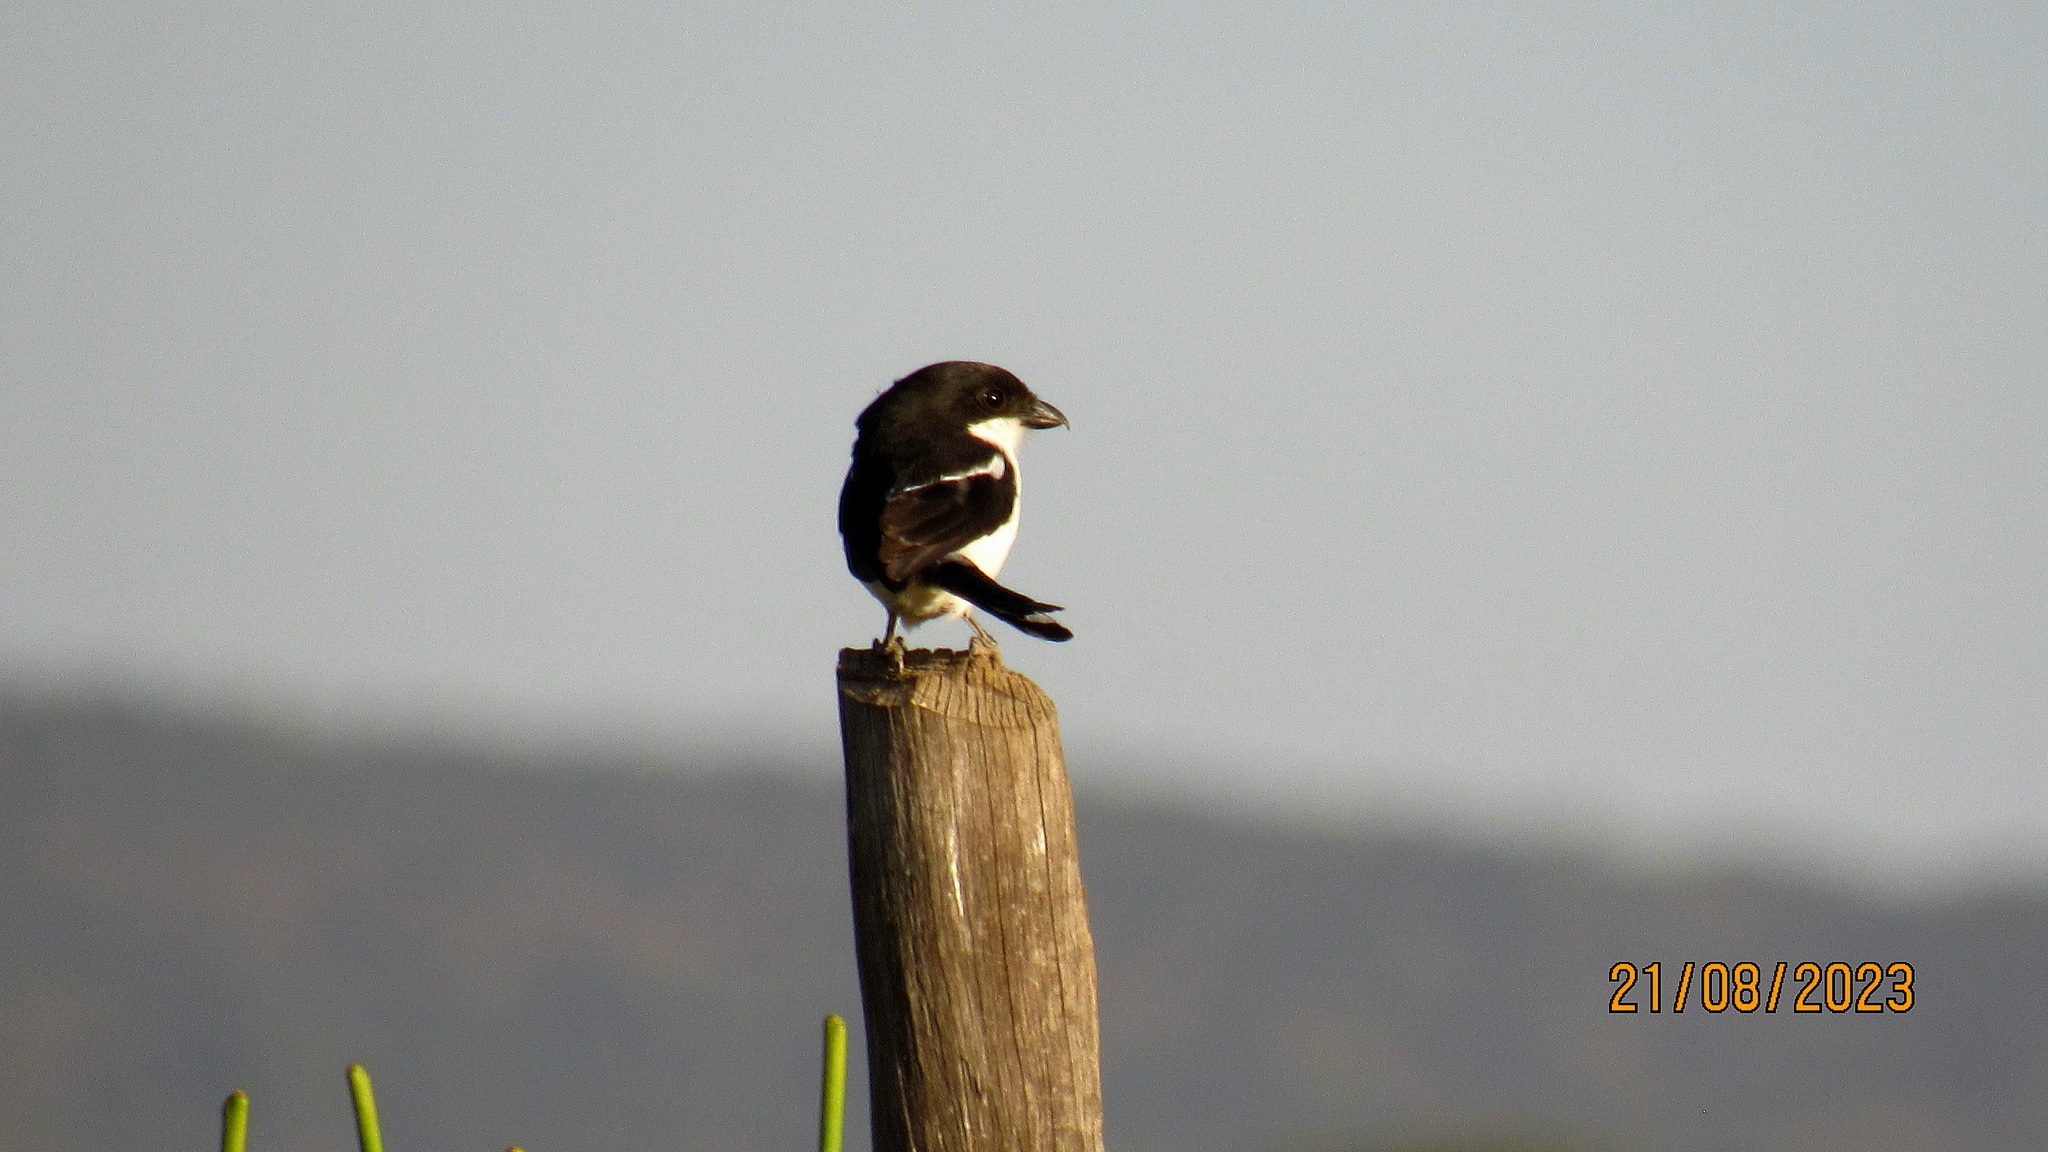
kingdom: Animalia
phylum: Chordata
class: Aves
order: Passeriformes
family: Laniidae
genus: Lanius
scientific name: Lanius humeralis
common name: Northern fiscal
